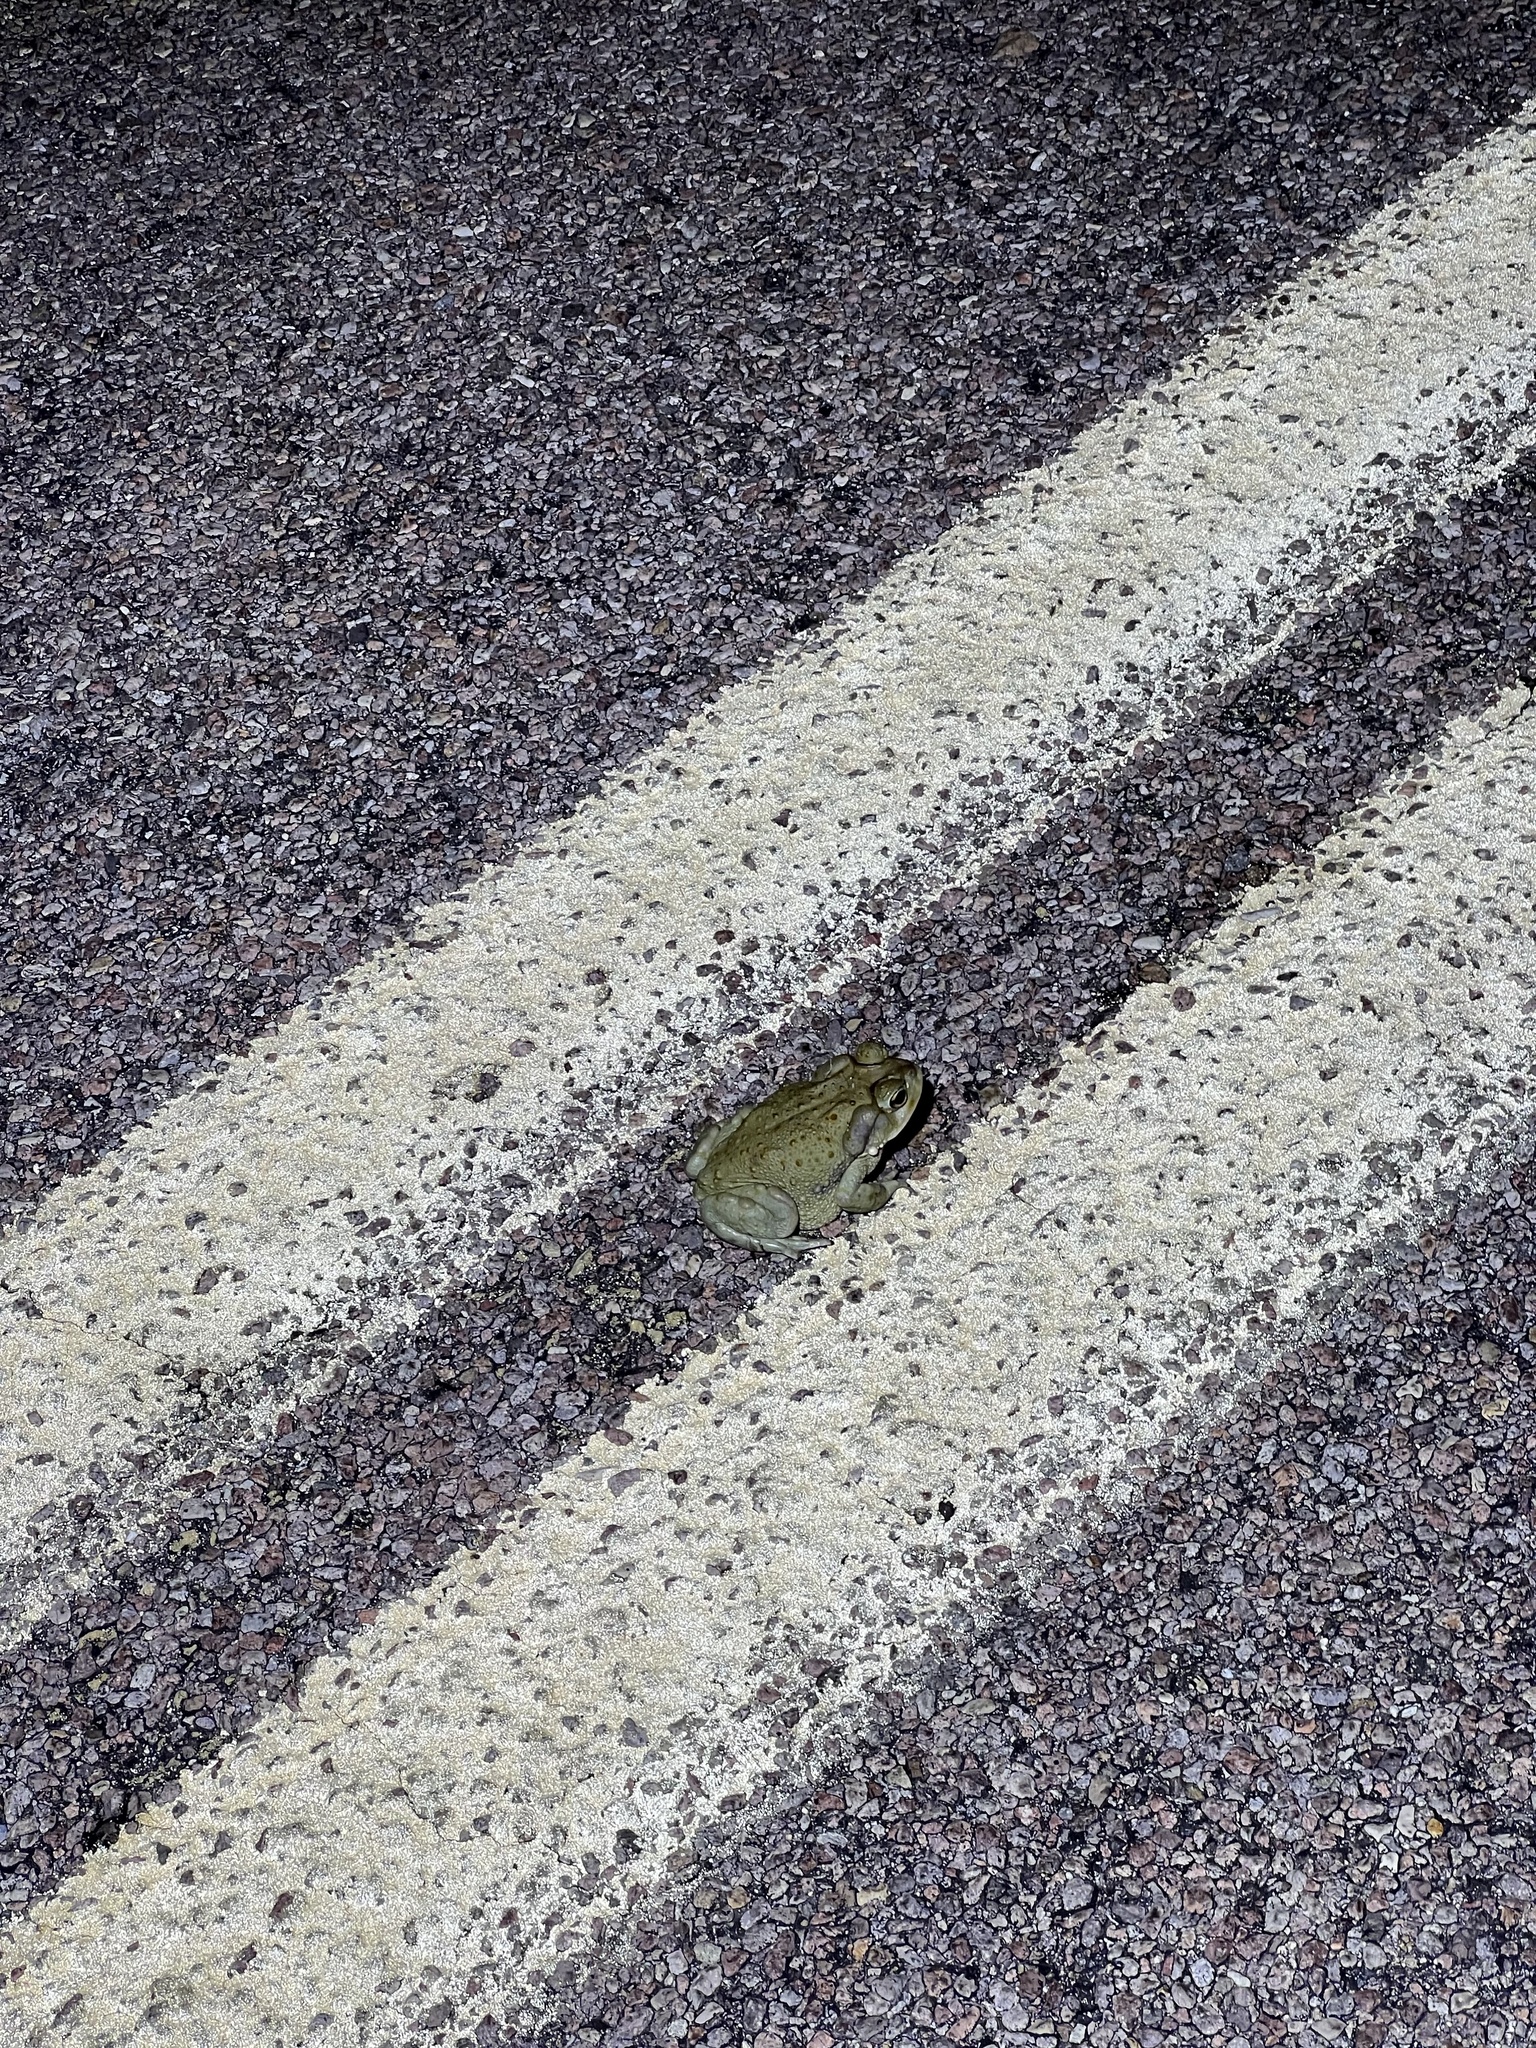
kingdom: Animalia
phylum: Chordata
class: Amphibia
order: Anura
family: Bufonidae
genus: Incilius
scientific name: Incilius alvarius
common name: Sonoran desert toad
